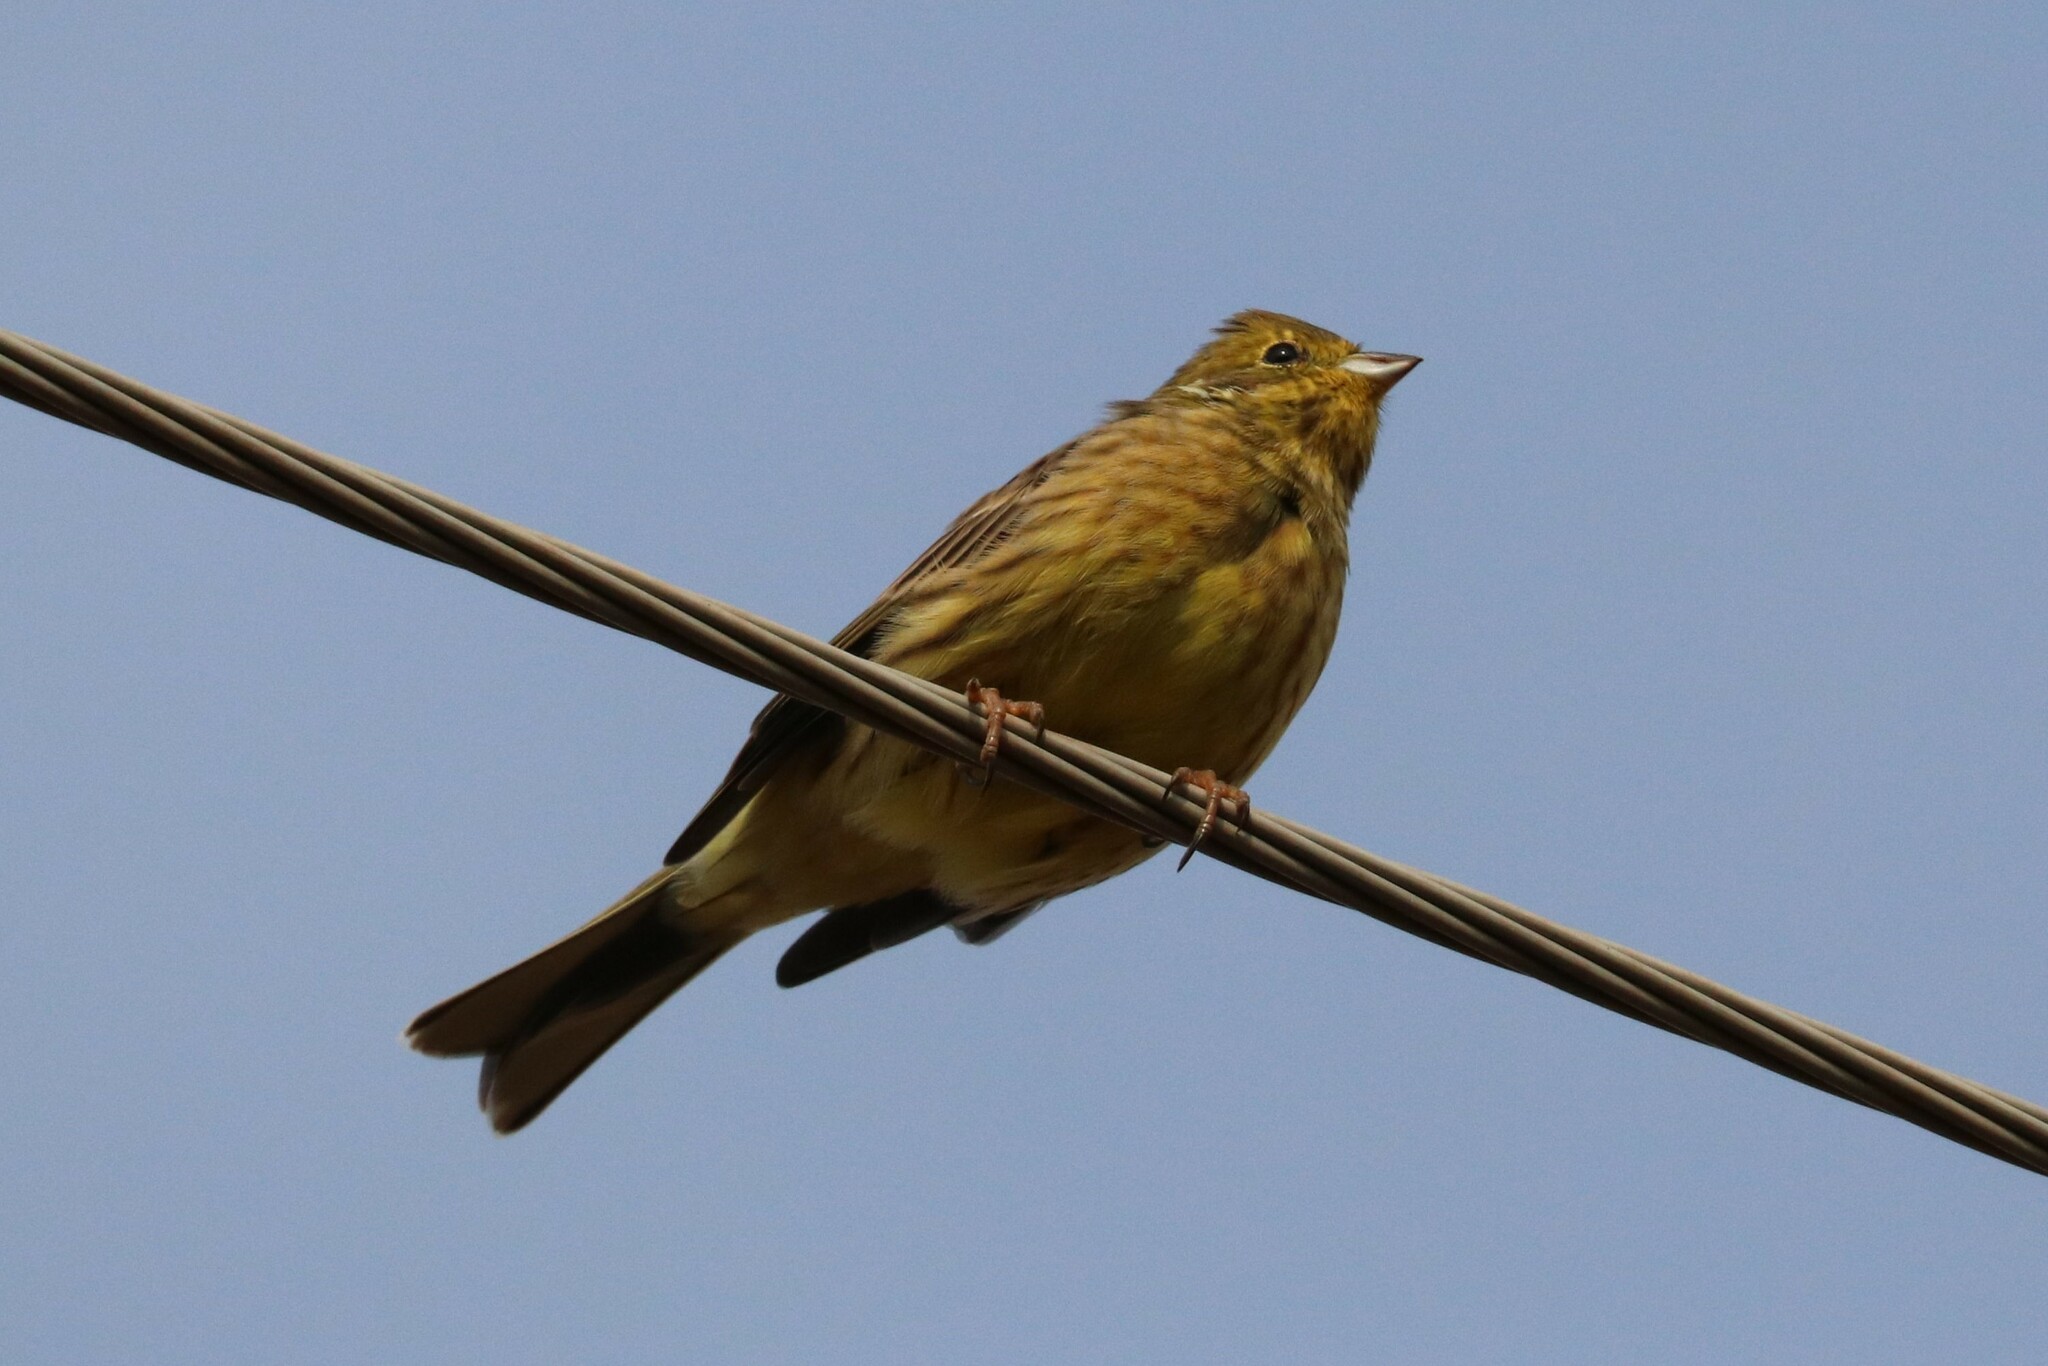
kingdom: Animalia
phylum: Chordata
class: Aves
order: Passeriformes
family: Emberizidae
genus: Emberiza
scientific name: Emberiza citrinella
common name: Yellowhammer
